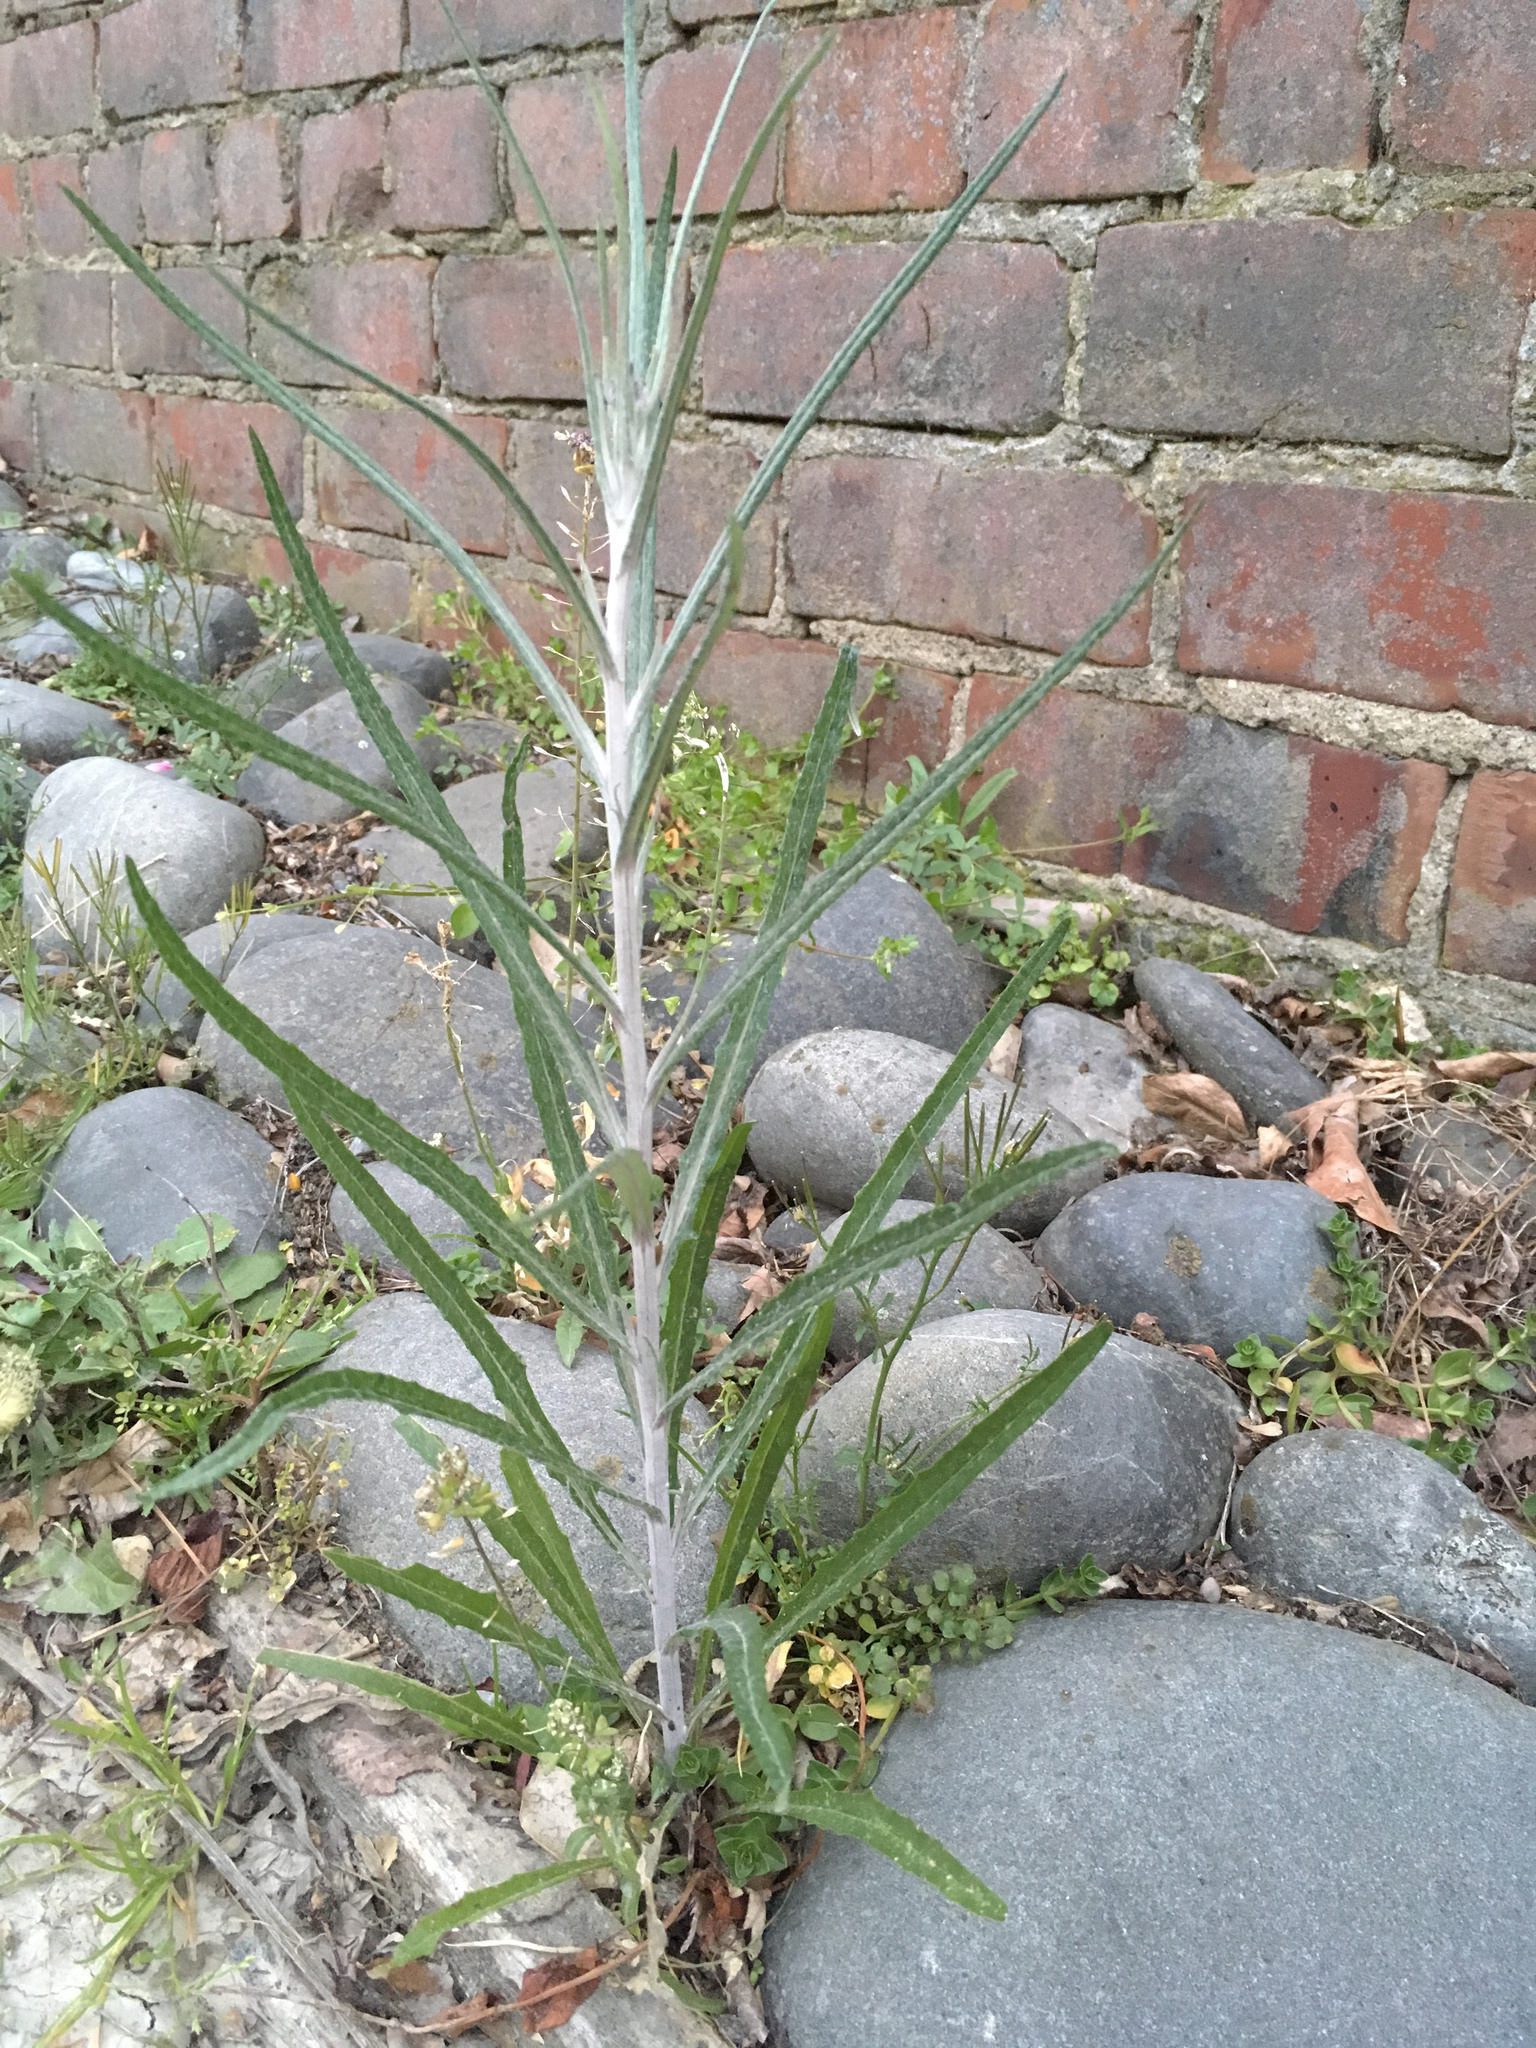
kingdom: Plantae
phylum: Tracheophyta
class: Magnoliopsida
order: Asterales
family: Asteraceae
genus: Senecio
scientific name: Senecio quadridentatus
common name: Cotton fireweed
